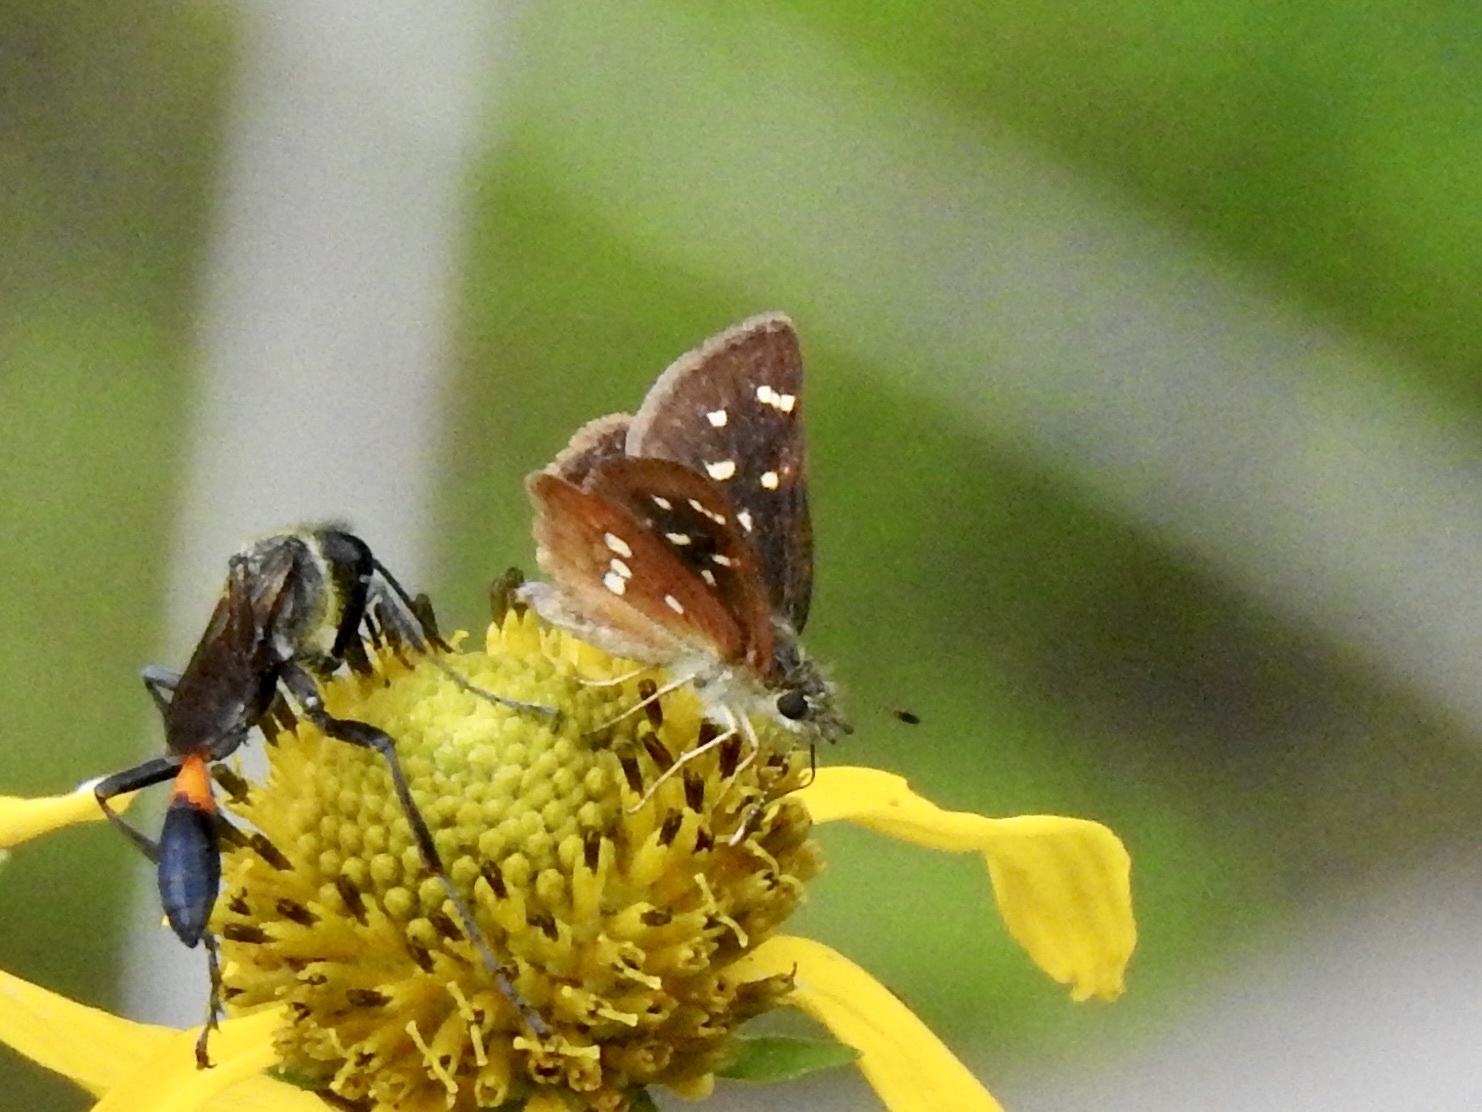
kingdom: Animalia
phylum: Arthropoda
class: Insecta
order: Lepidoptera
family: Hesperiidae
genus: Piruna
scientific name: Piruna polingii
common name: Four-spotted skipperling
